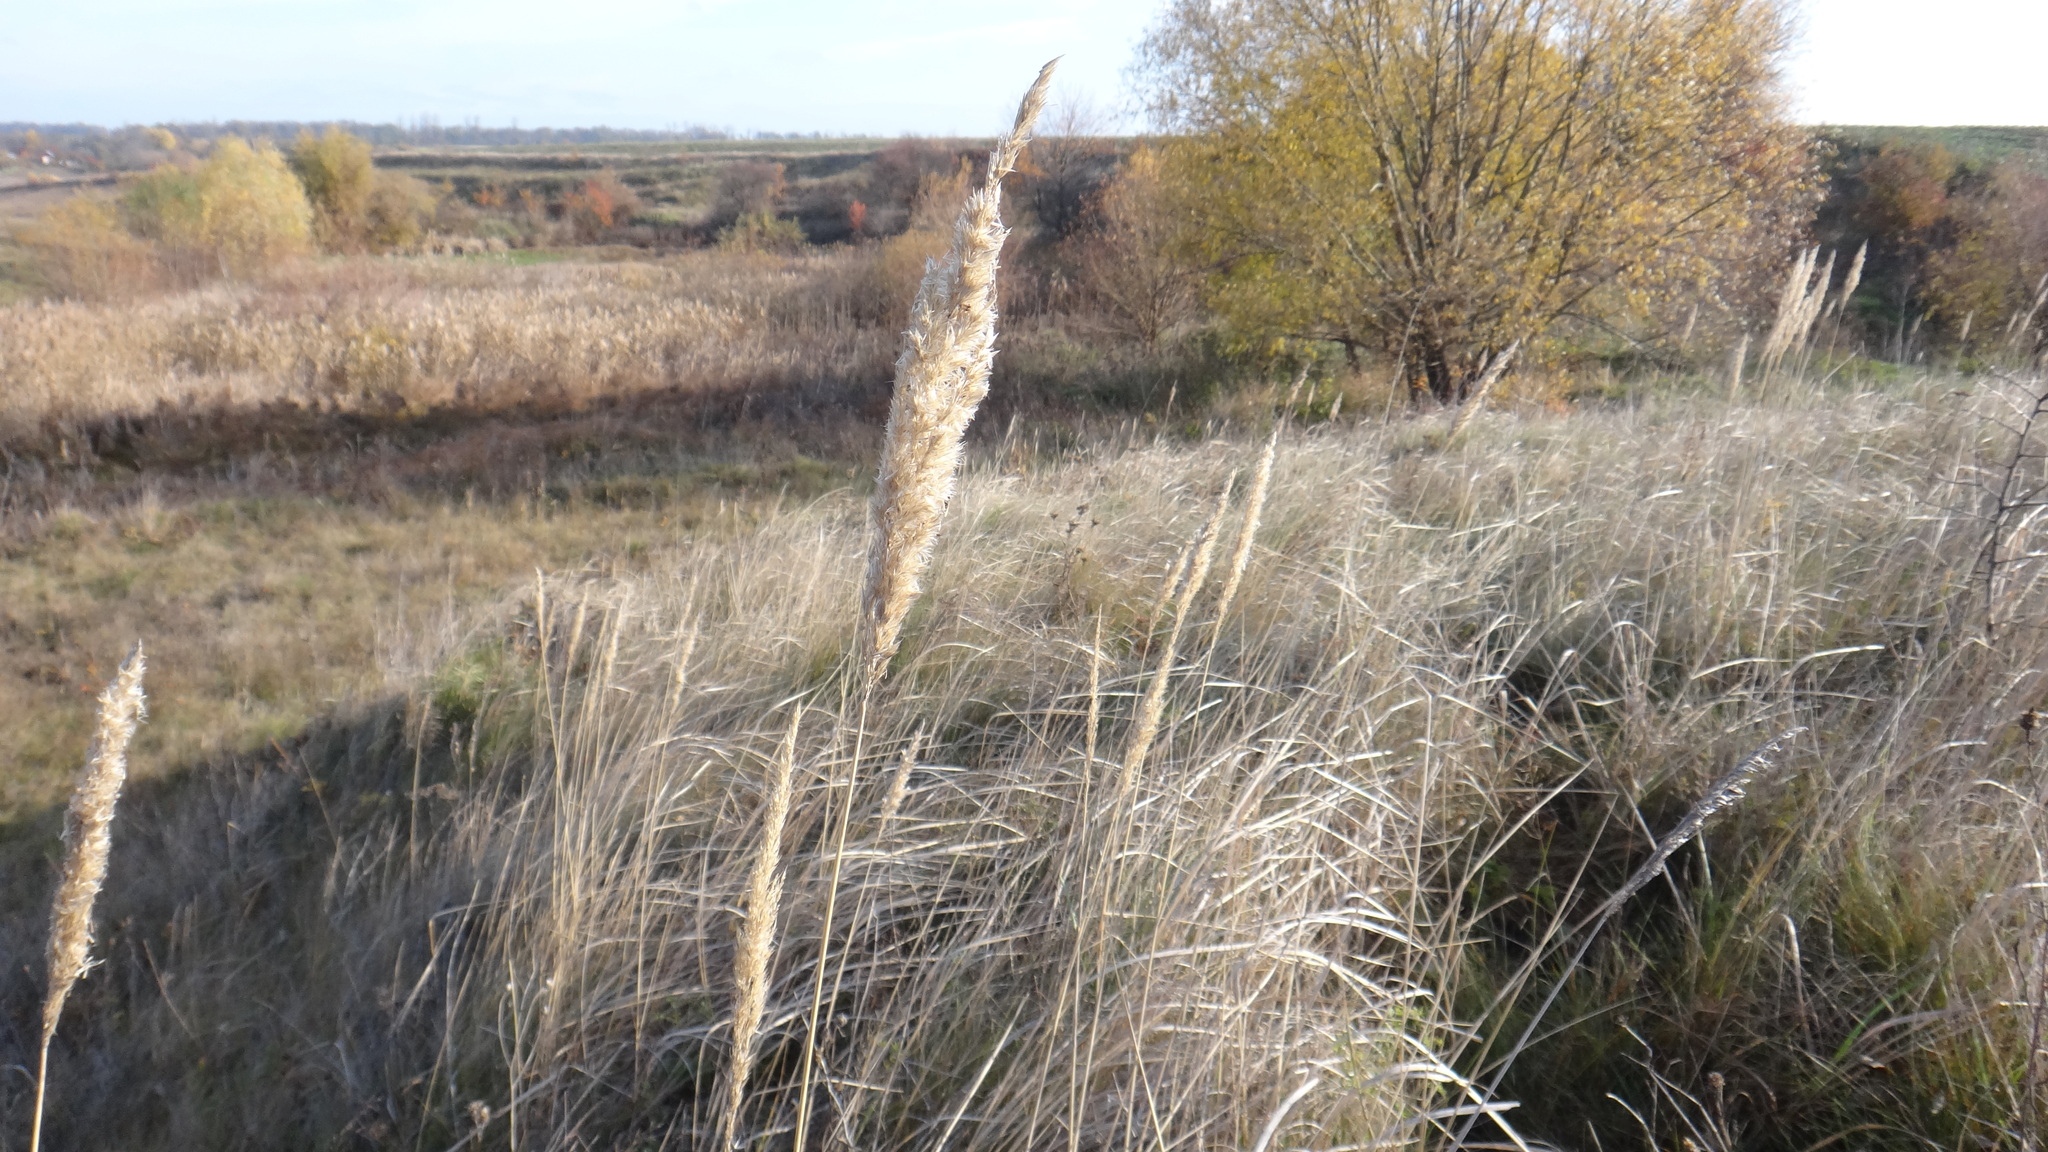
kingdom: Plantae
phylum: Tracheophyta
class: Liliopsida
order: Poales
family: Poaceae
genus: Calamagrostis
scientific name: Calamagrostis epigejos
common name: Wood small-reed
